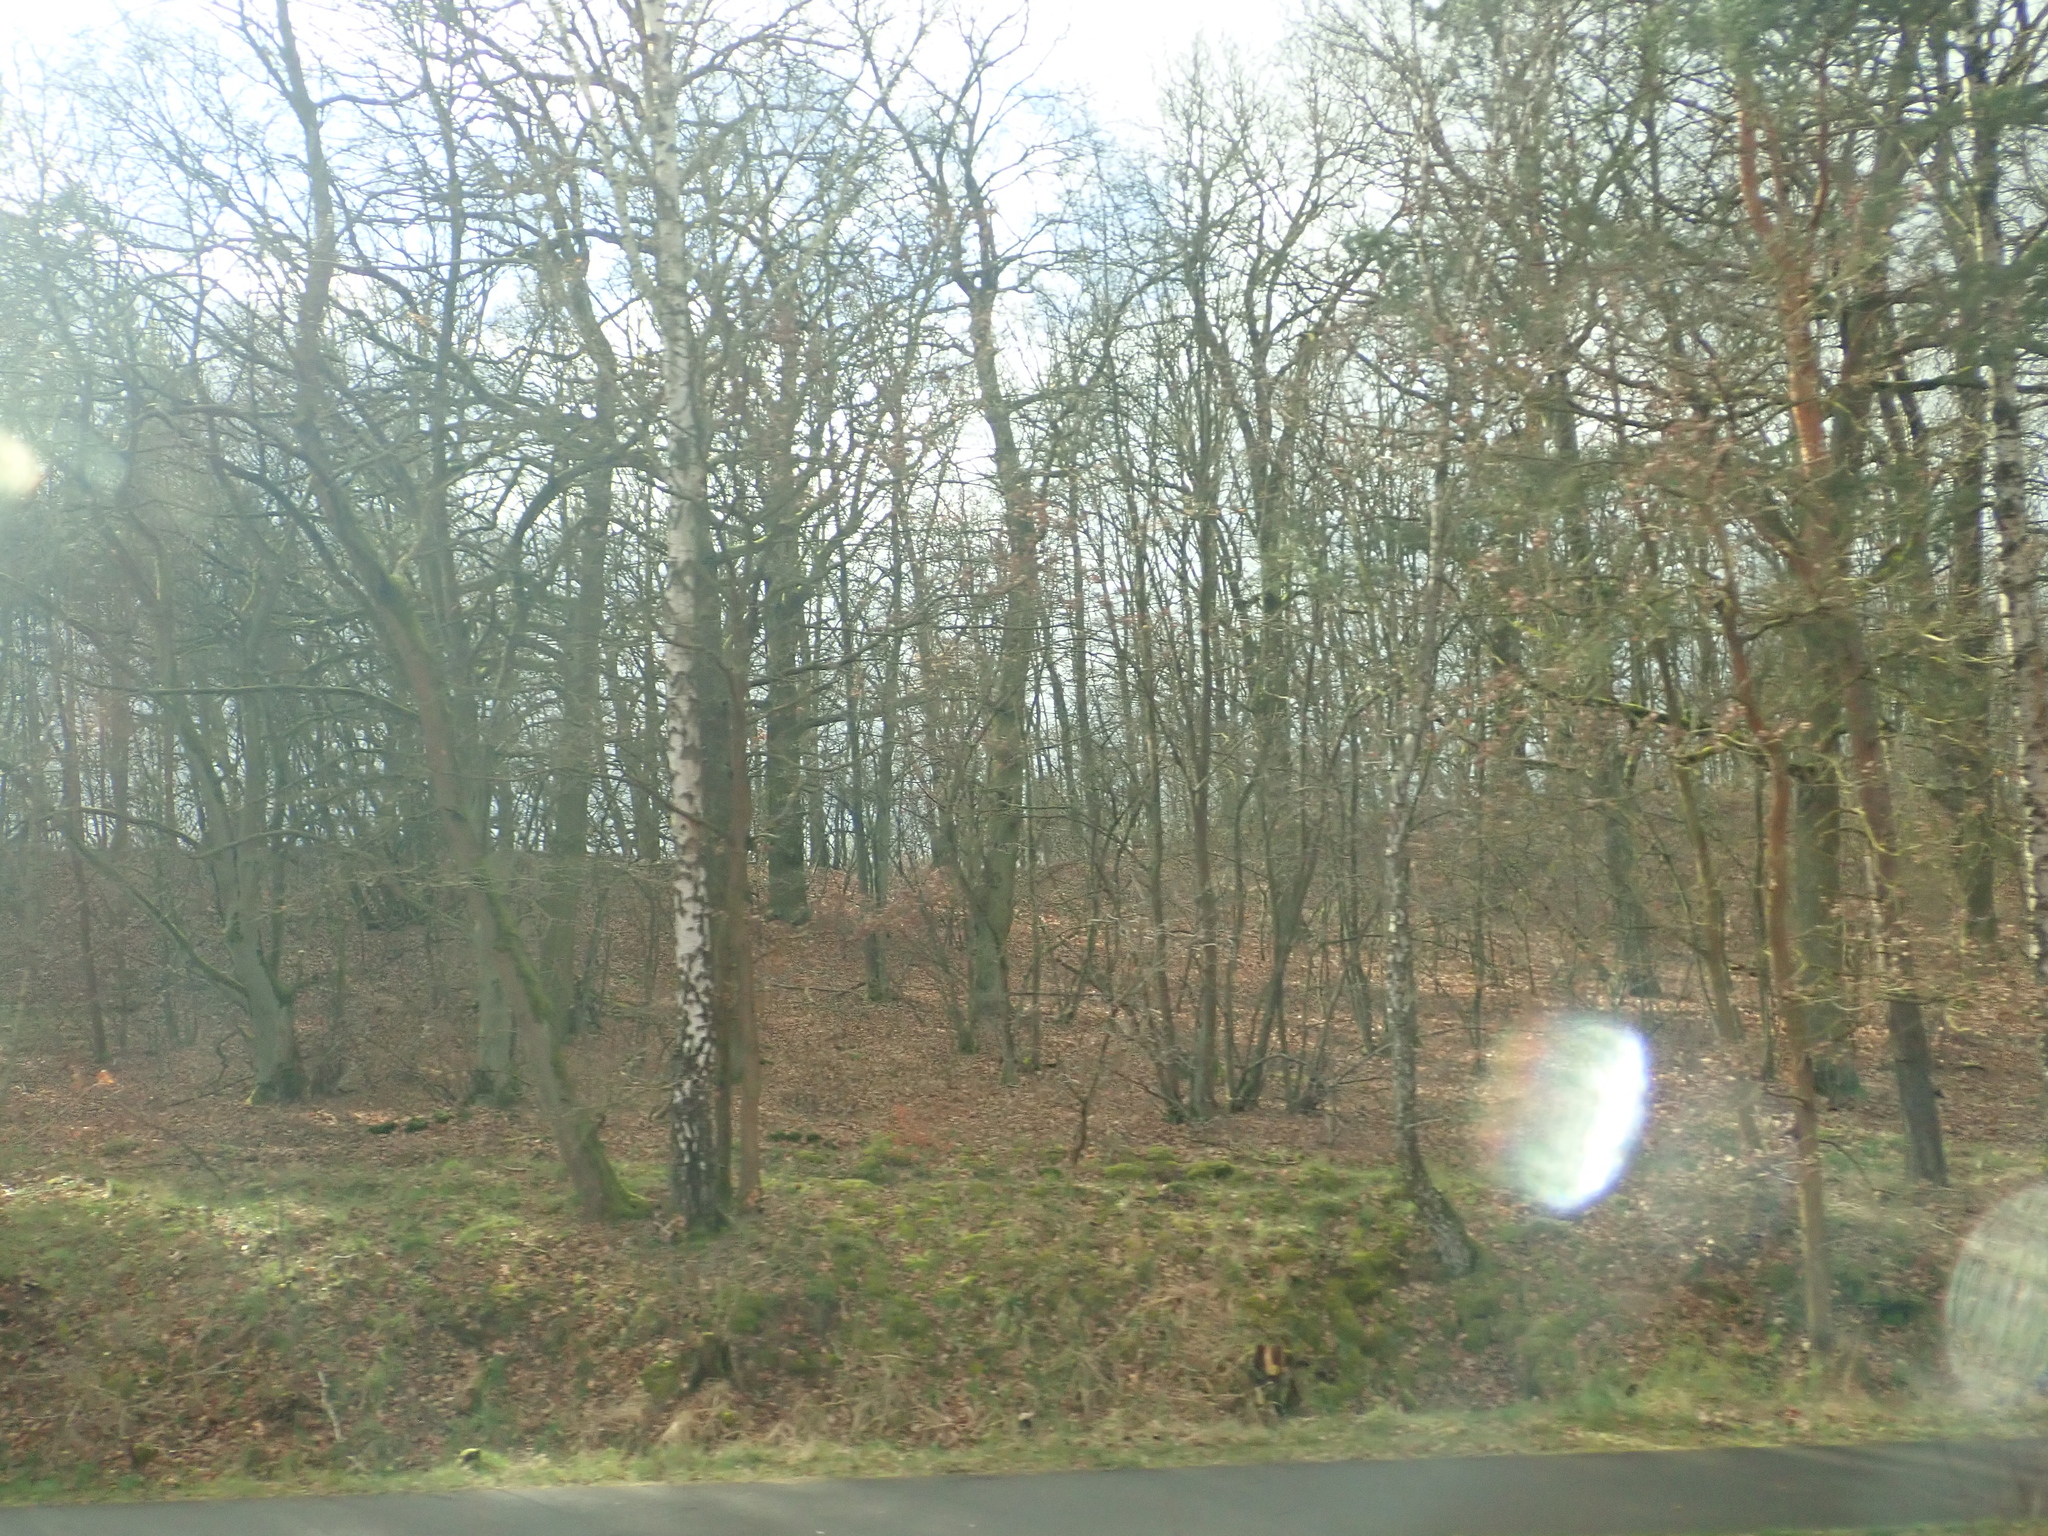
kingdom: Plantae
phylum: Tracheophyta
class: Magnoliopsida
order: Fagales
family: Betulaceae
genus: Betula
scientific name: Betula pendula
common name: Silver birch
